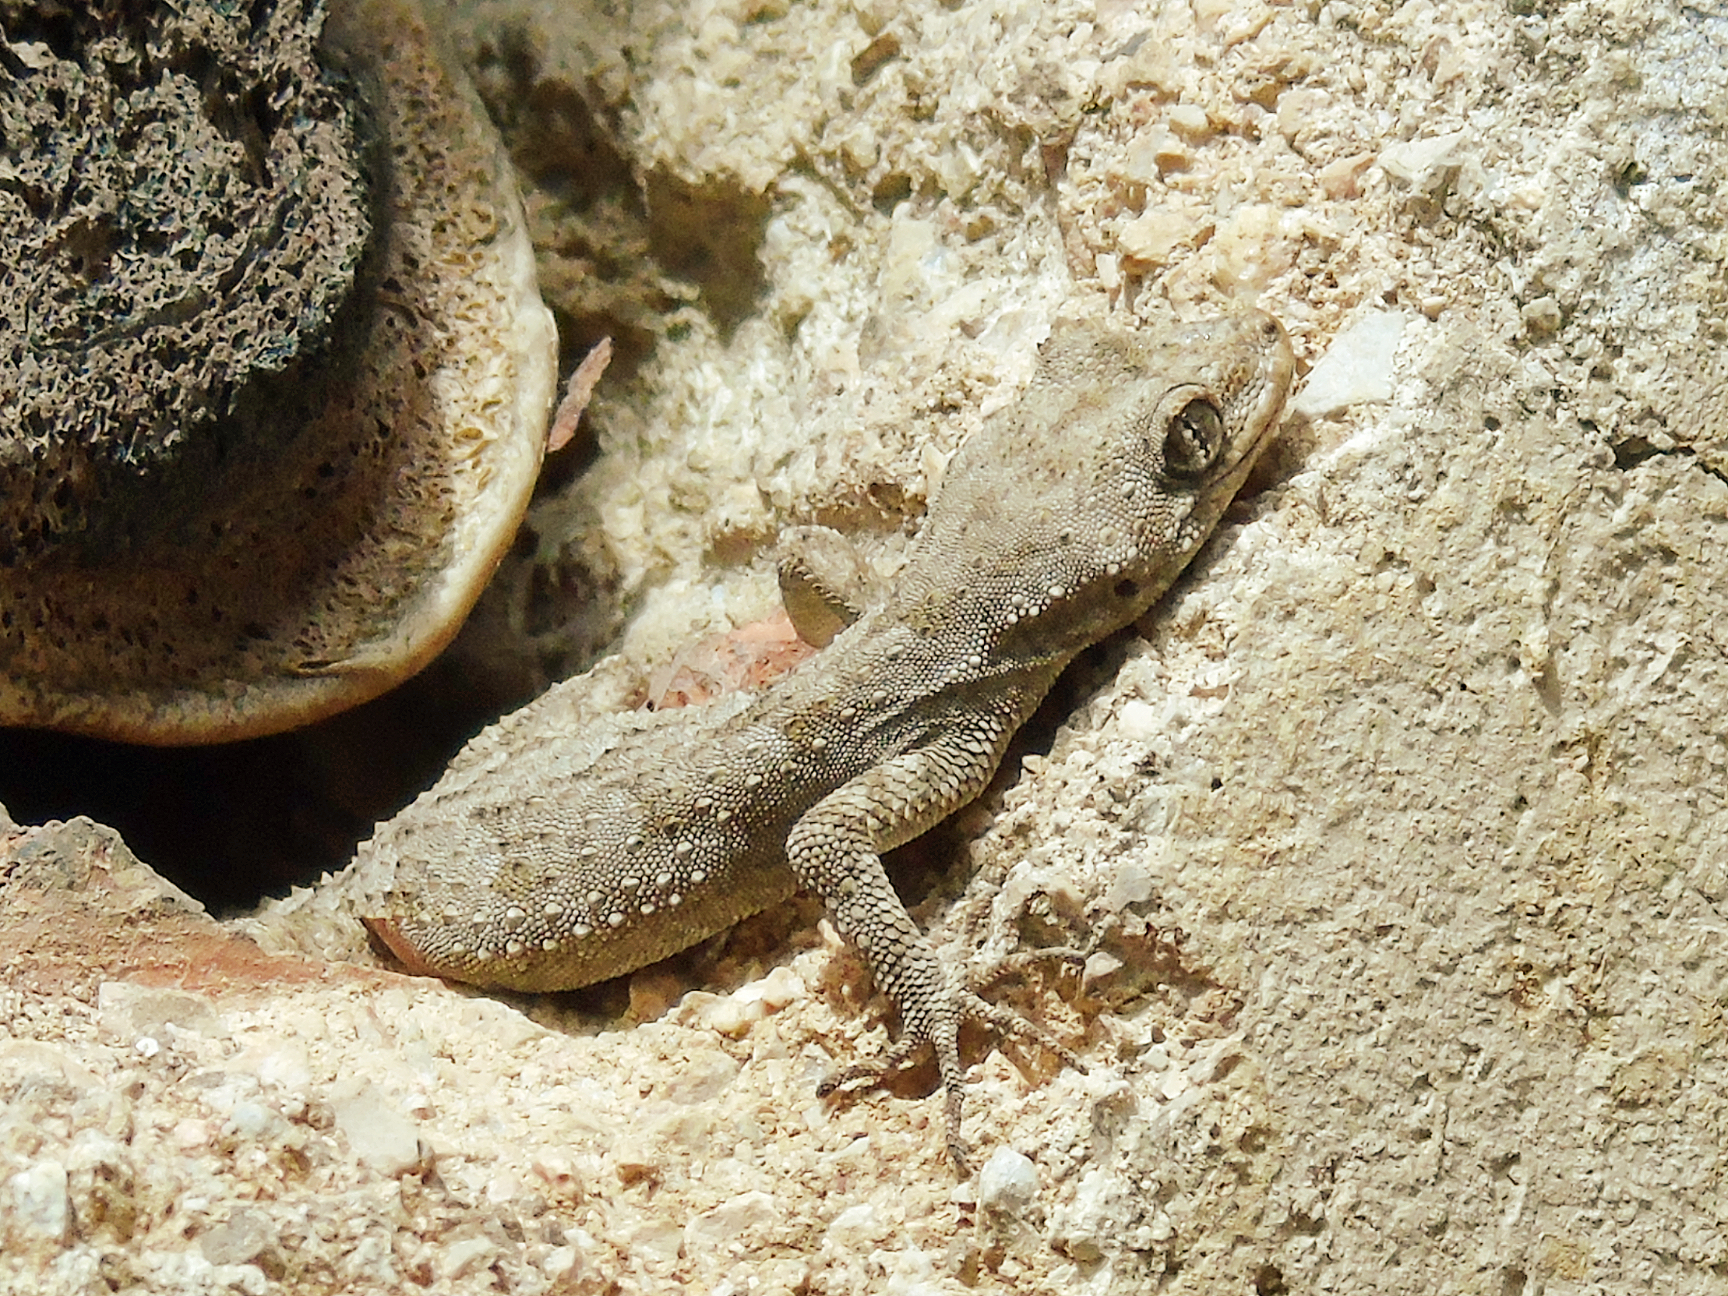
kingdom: Animalia
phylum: Chordata
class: Squamata
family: Gekkonidae
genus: Mediodactylus
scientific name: Mediodactylus kotschyi
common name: Kotschy's gecko
